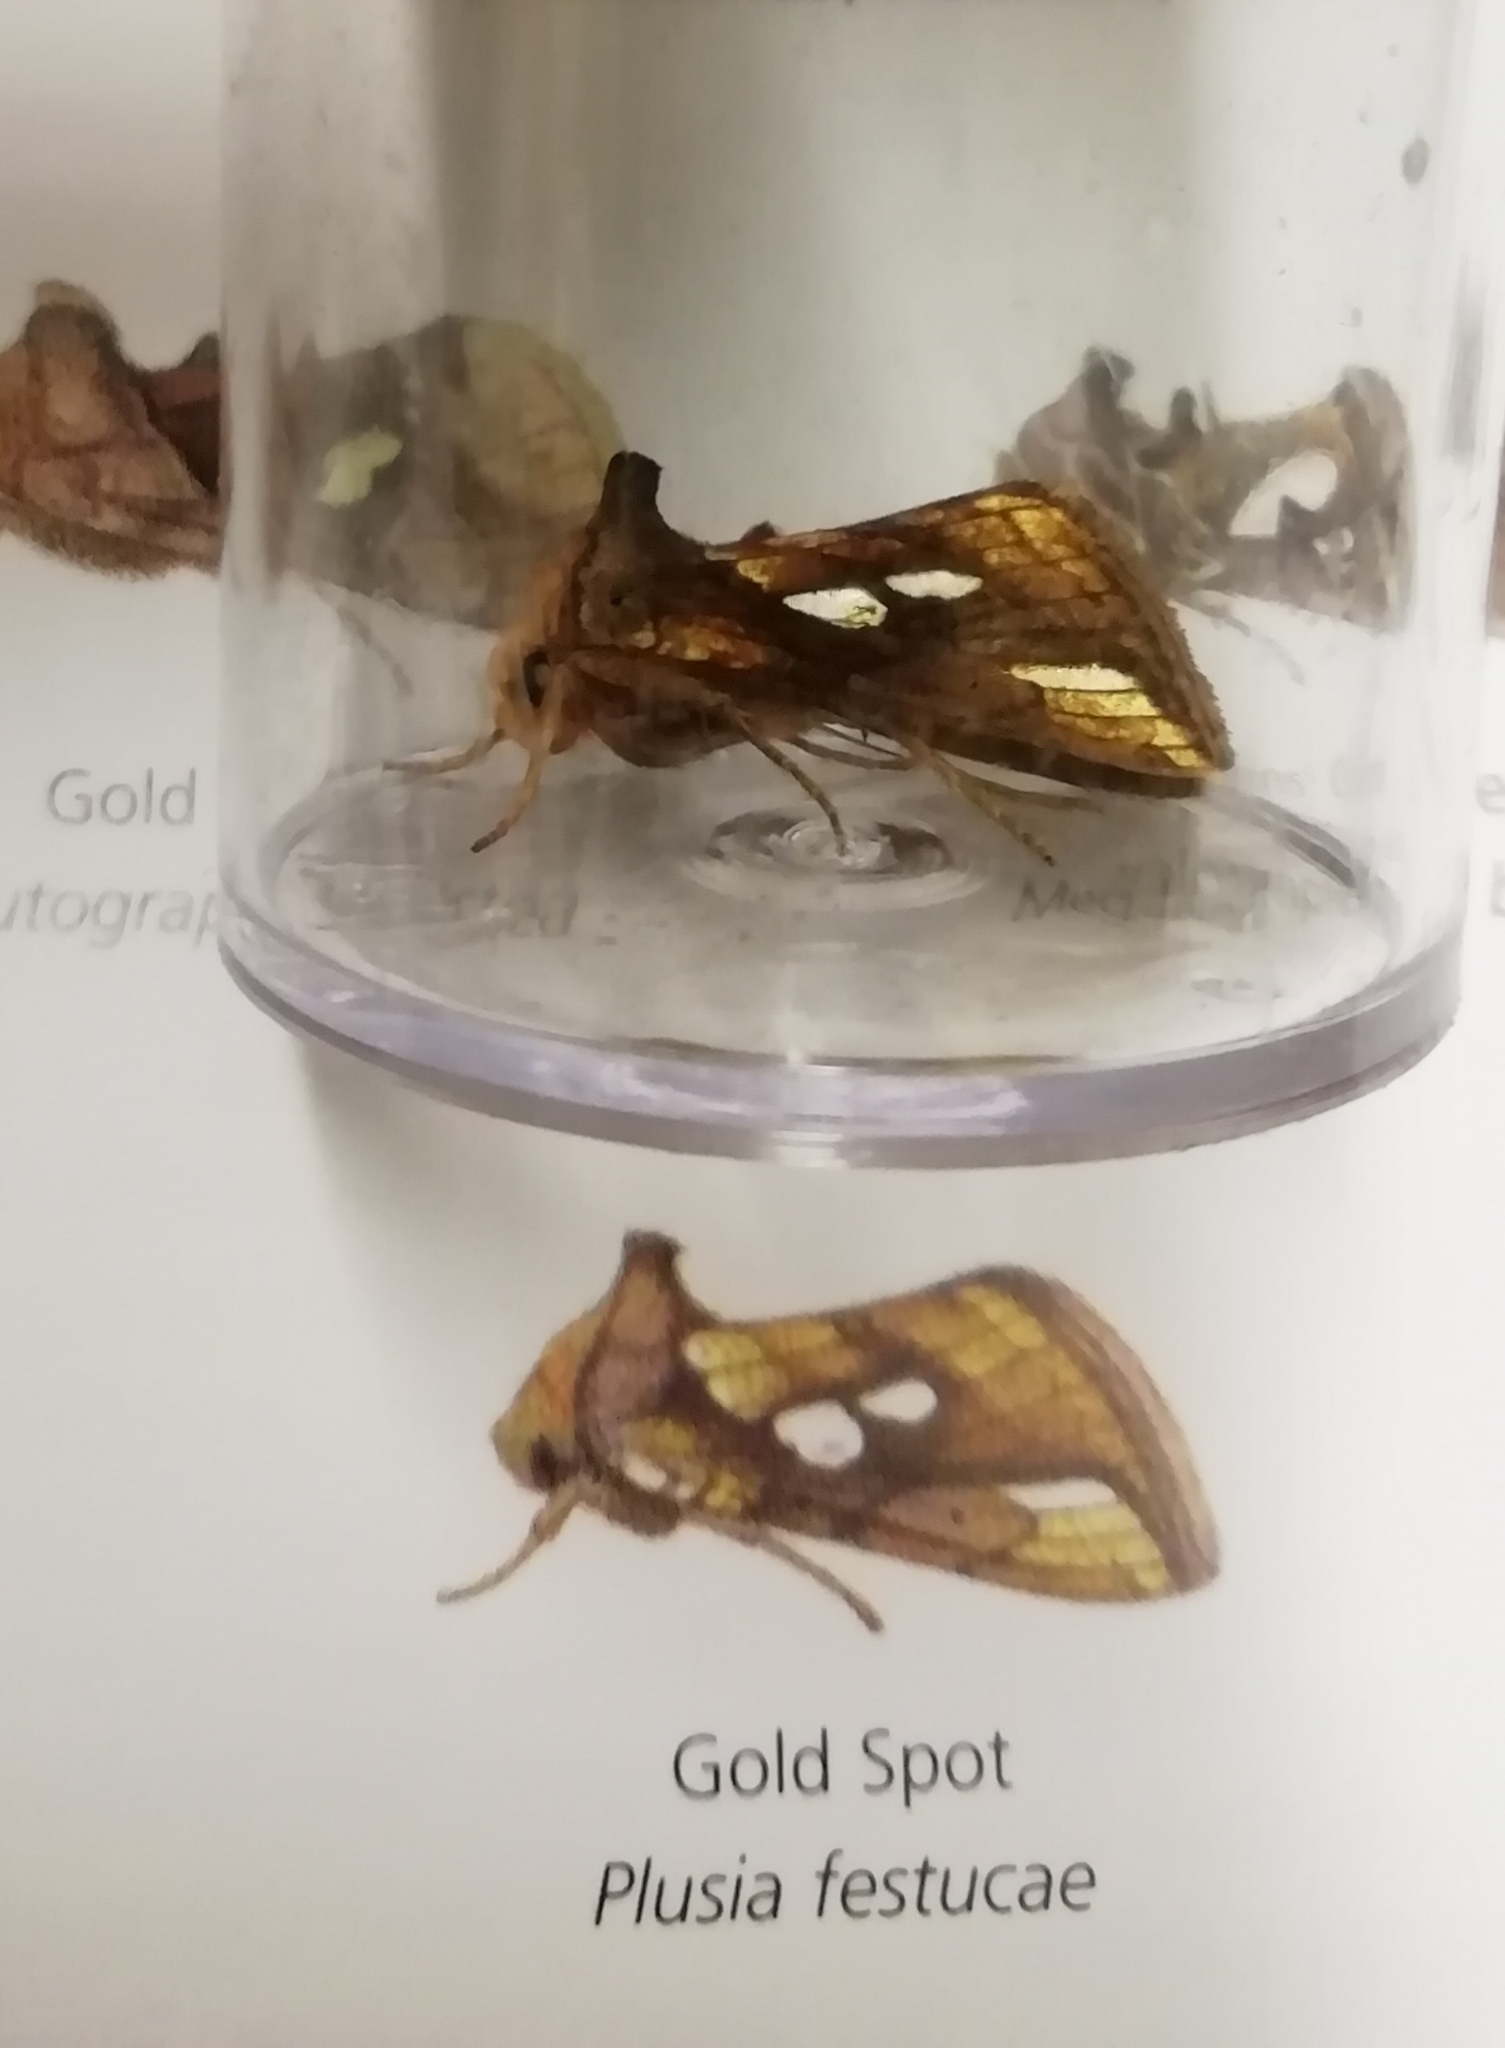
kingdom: Animalia
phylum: Arthropoda
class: Insecta
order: Lepidoptera
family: Noctuidae
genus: Plusia
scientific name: Plusia festucae
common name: Gold spot
